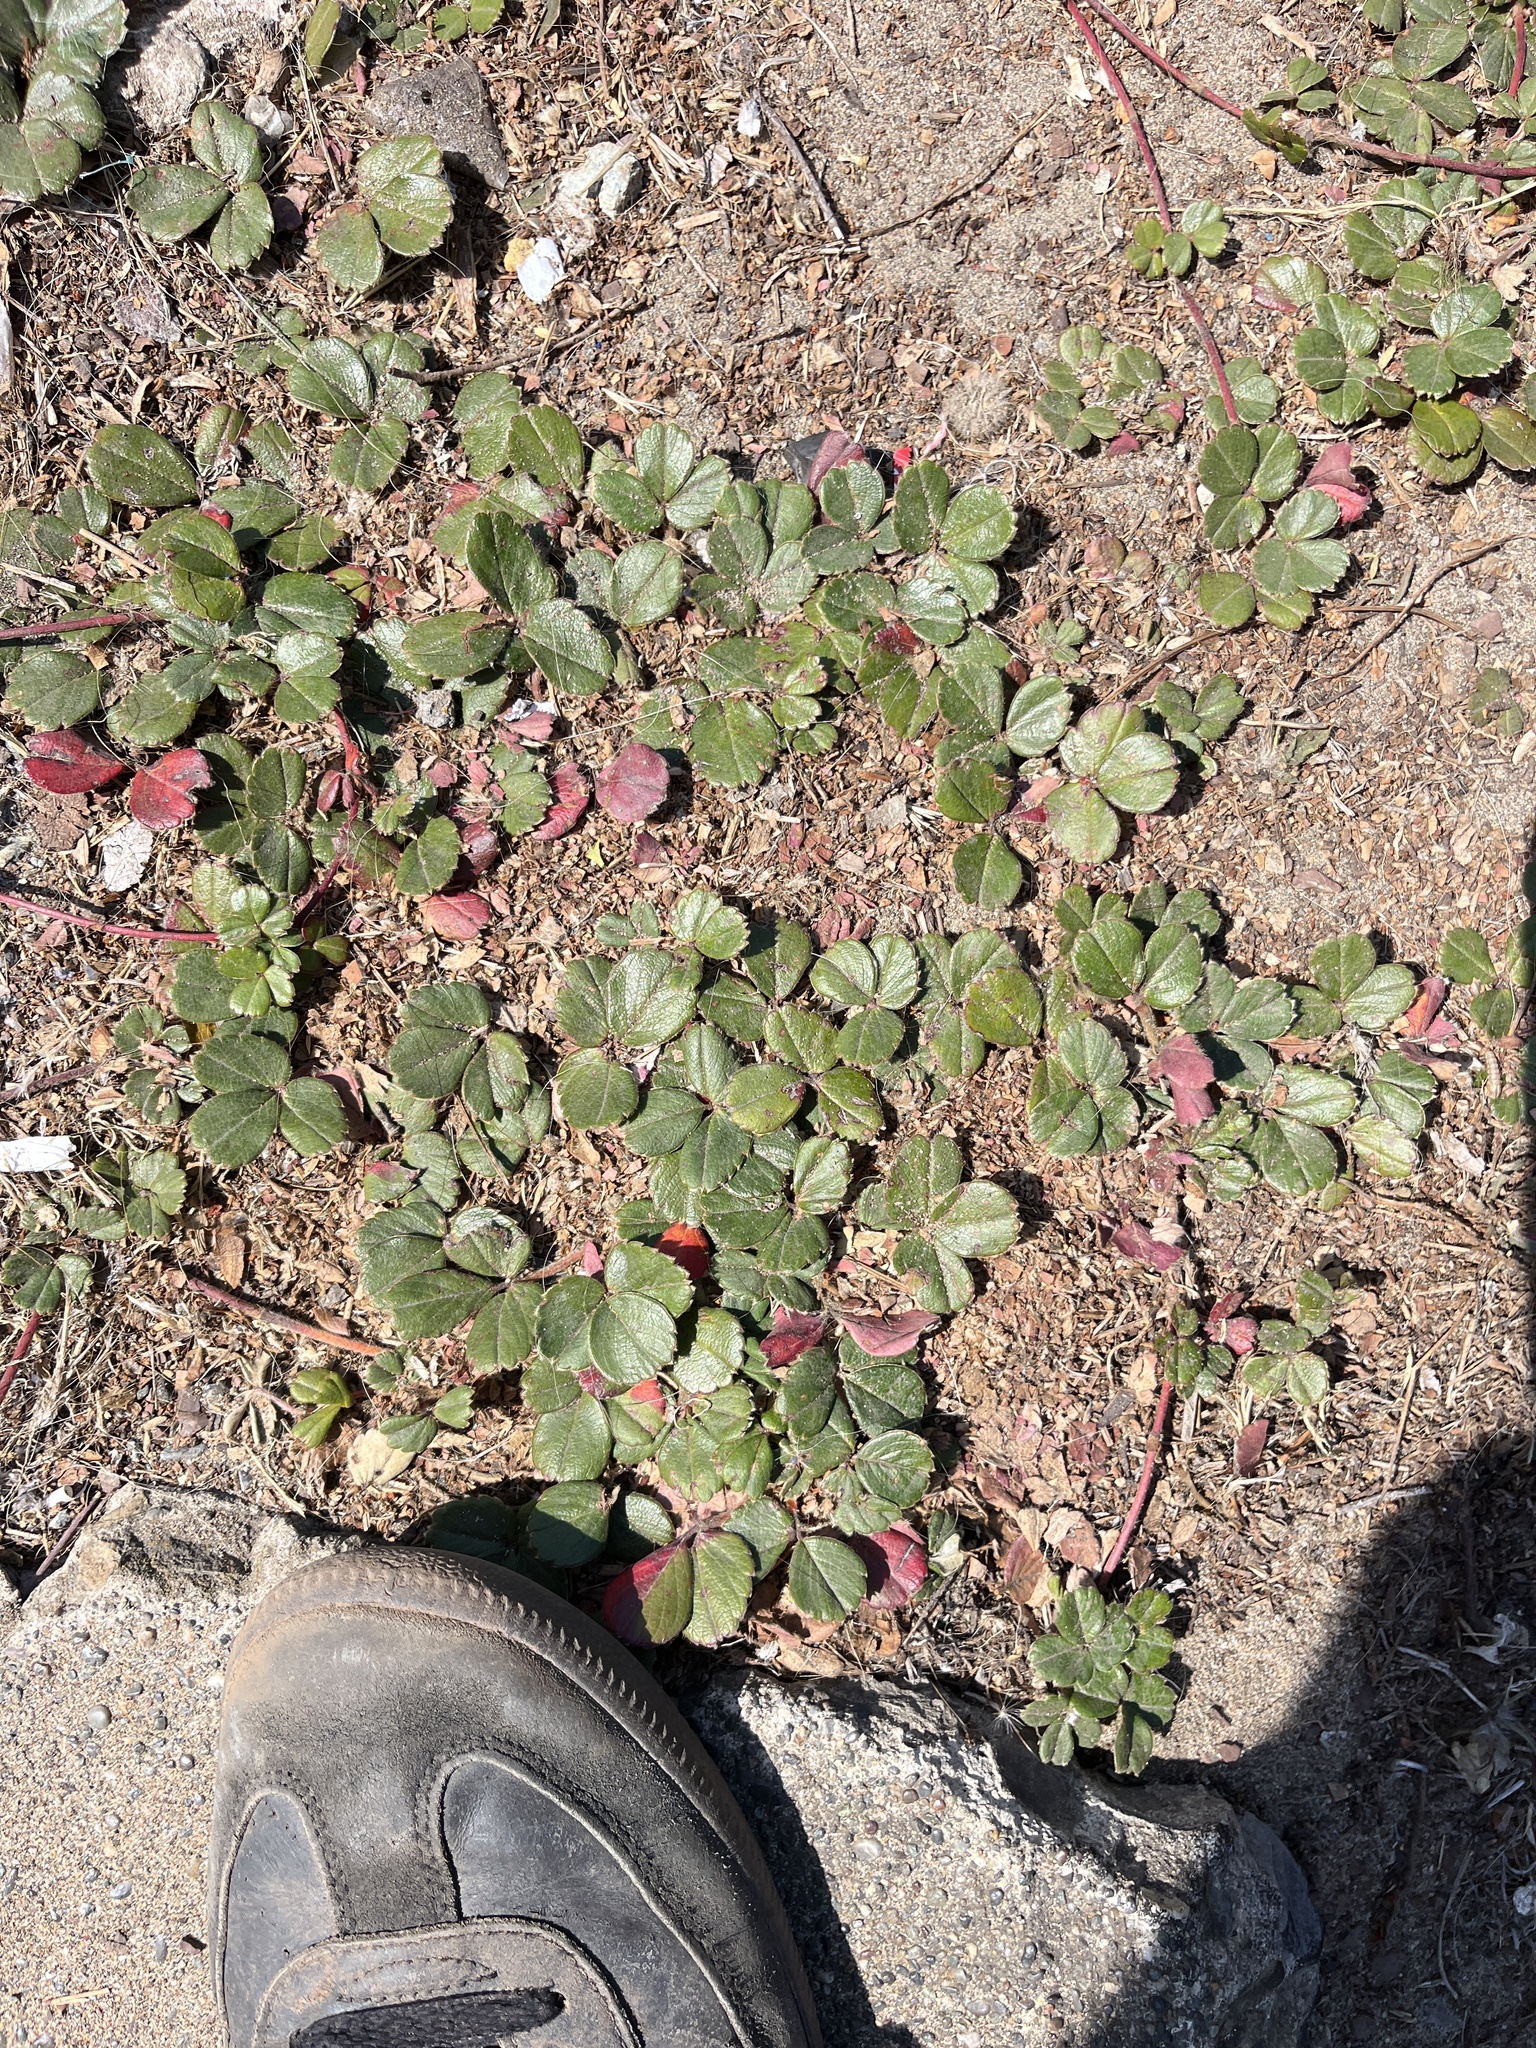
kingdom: Plantae
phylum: Tracheophyta
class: Magnoliopsida
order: Rosales
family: Rosaceae
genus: Fragaria
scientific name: Fragaria chiloensis
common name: Beach strawberry
